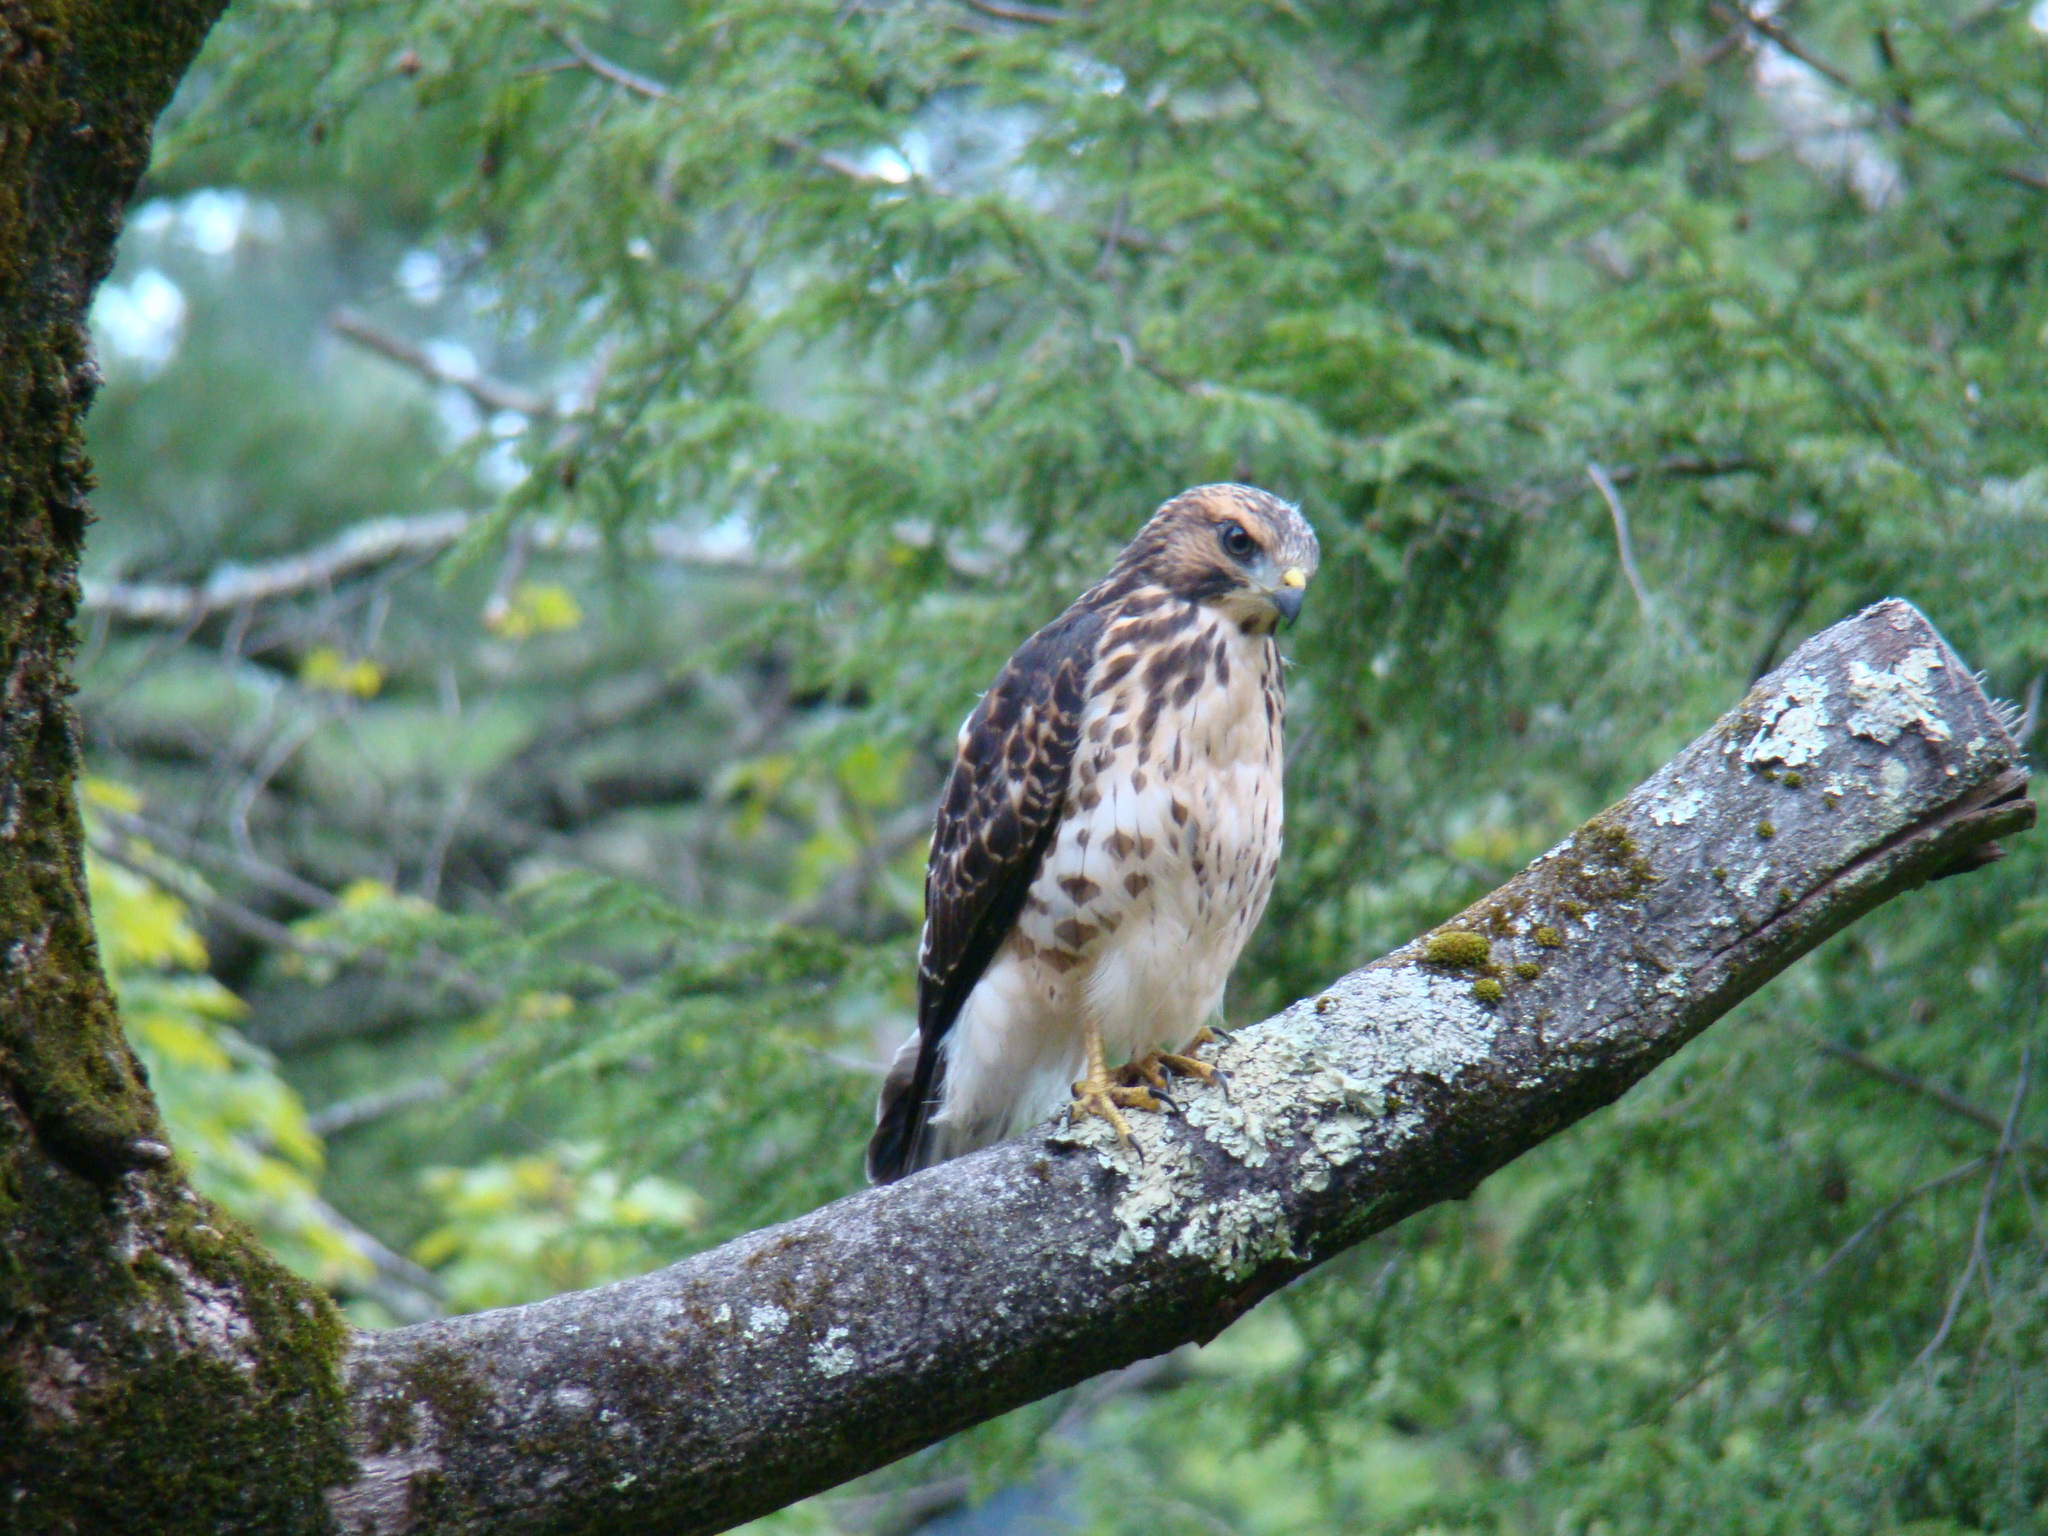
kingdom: Animalia
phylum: Chordata
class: Aves
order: Accipitriformes
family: Accipitridae
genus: Buteo
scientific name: Buteo platypterus
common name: Broad-winged hawk
